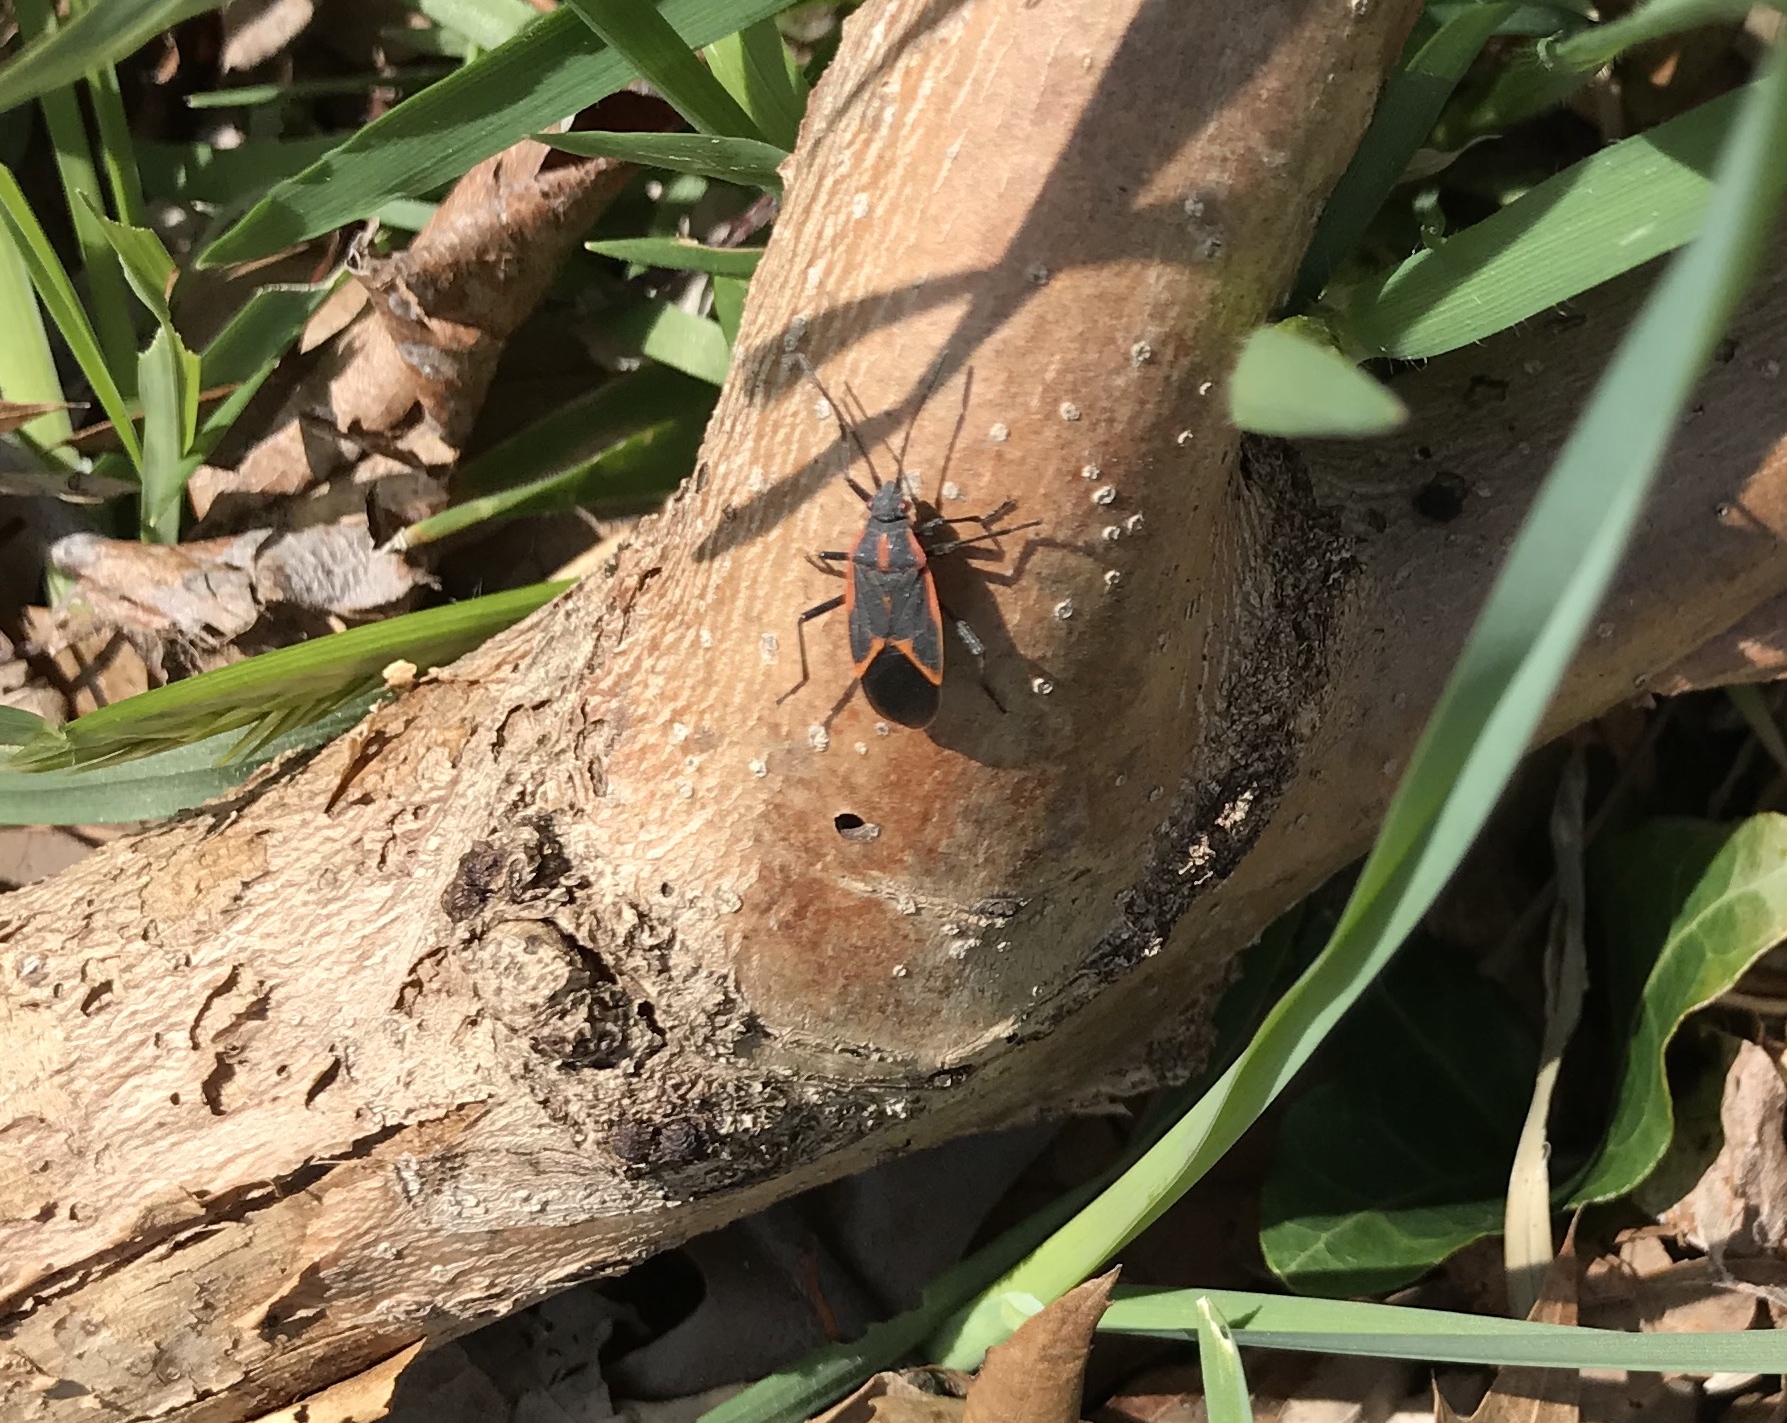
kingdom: Animalia
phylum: Arthropoda
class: Insecta
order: Hemiptera
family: Rhopalidae
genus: Boisea
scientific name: Boisea trivittata
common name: Boxelder bug
